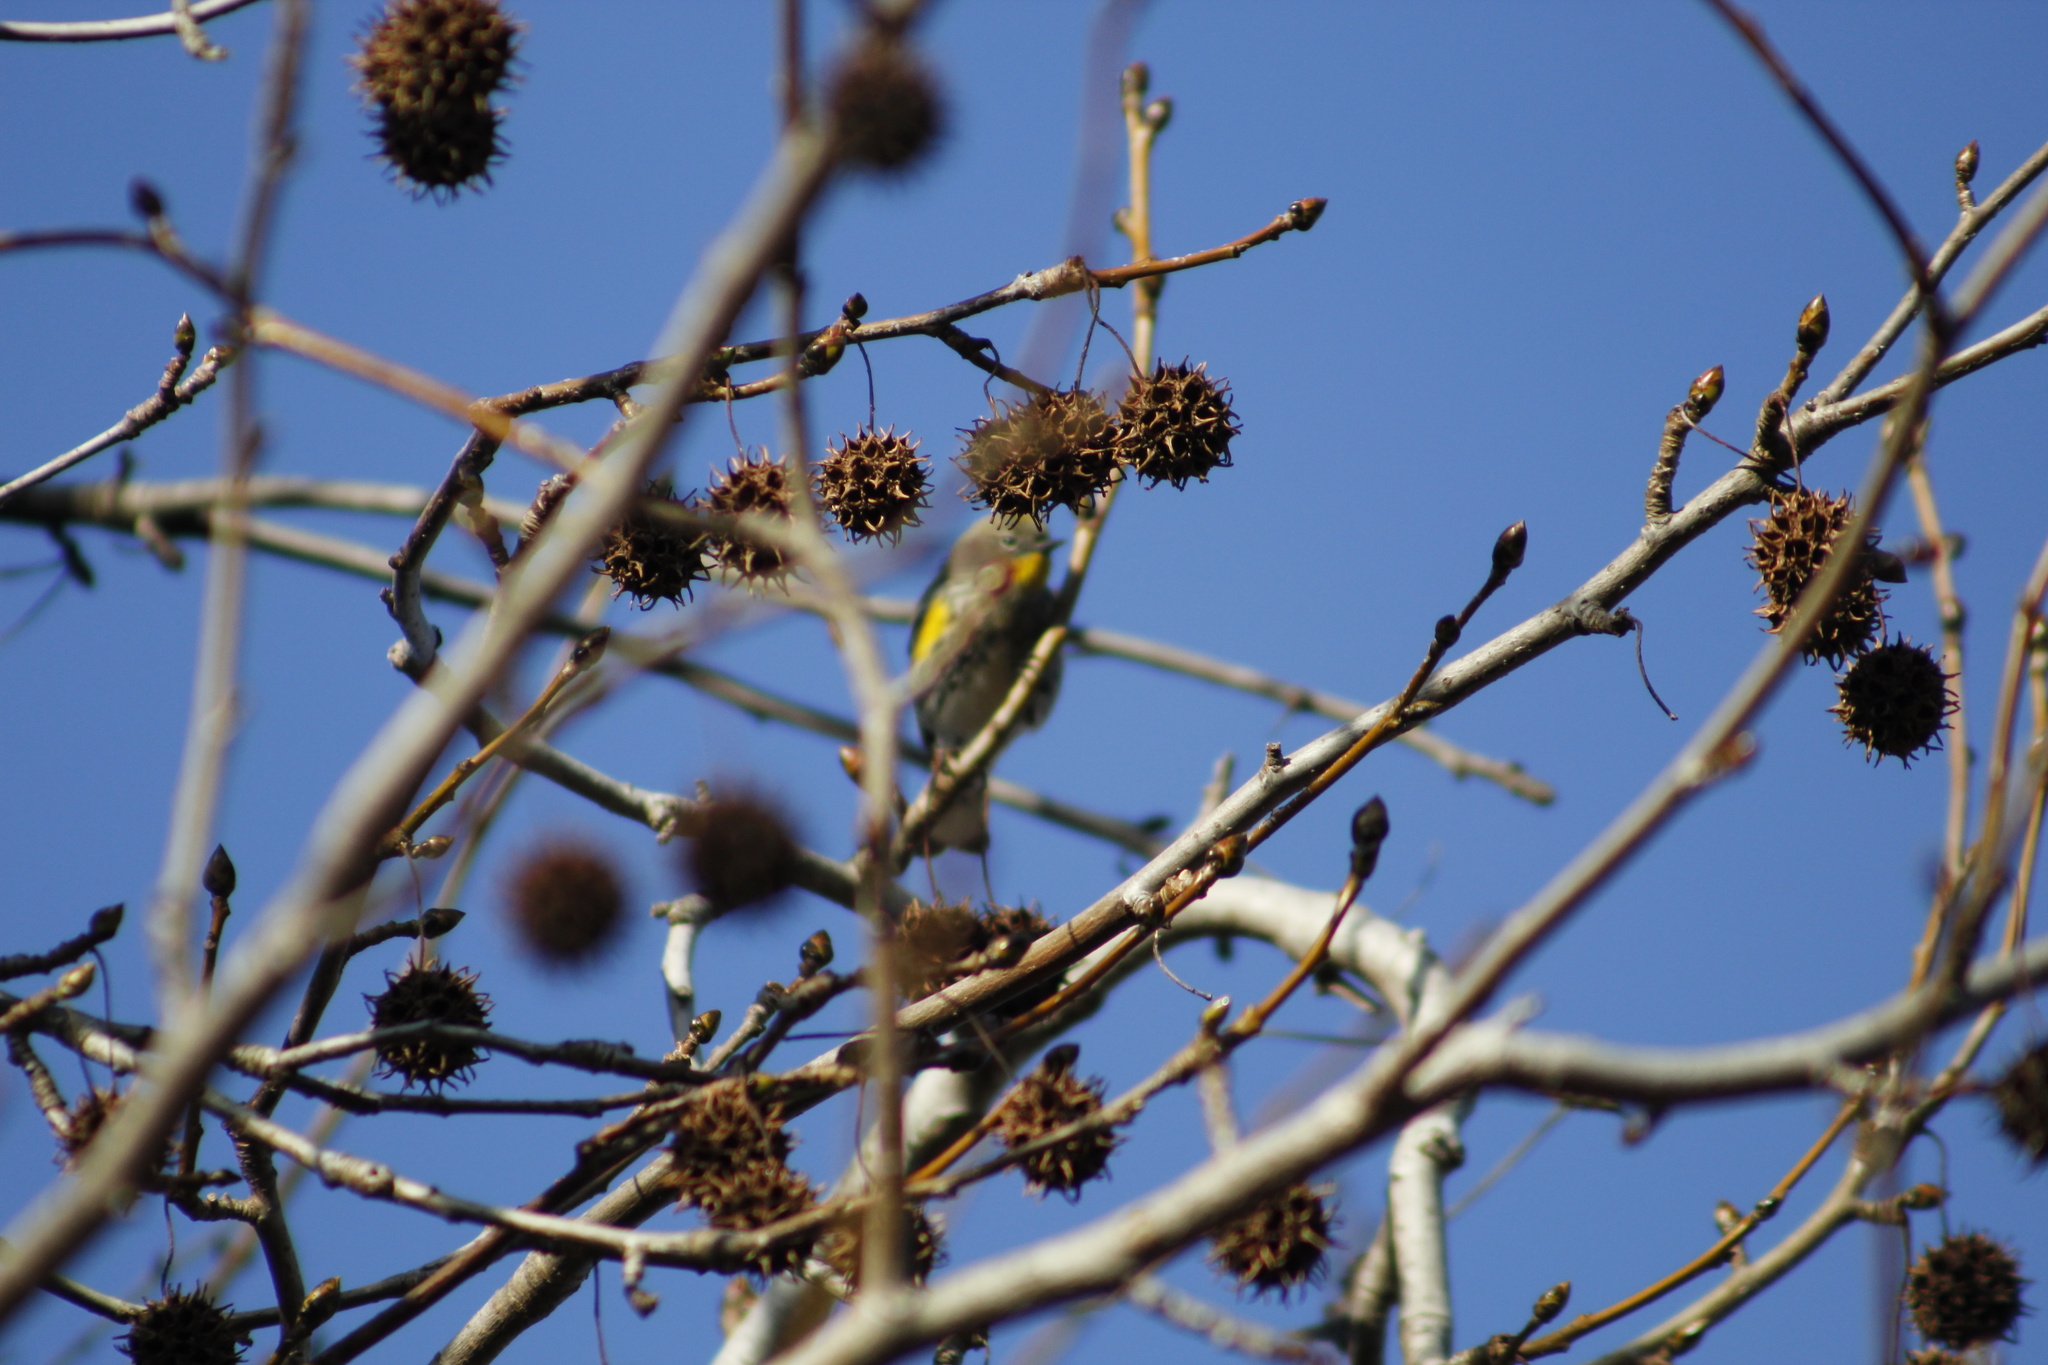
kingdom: Animalia
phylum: Chordata
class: Aves
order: Passeriformes
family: Parulidae
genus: Setophaga
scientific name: Setophaga coronata
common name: Myrtle warbler
